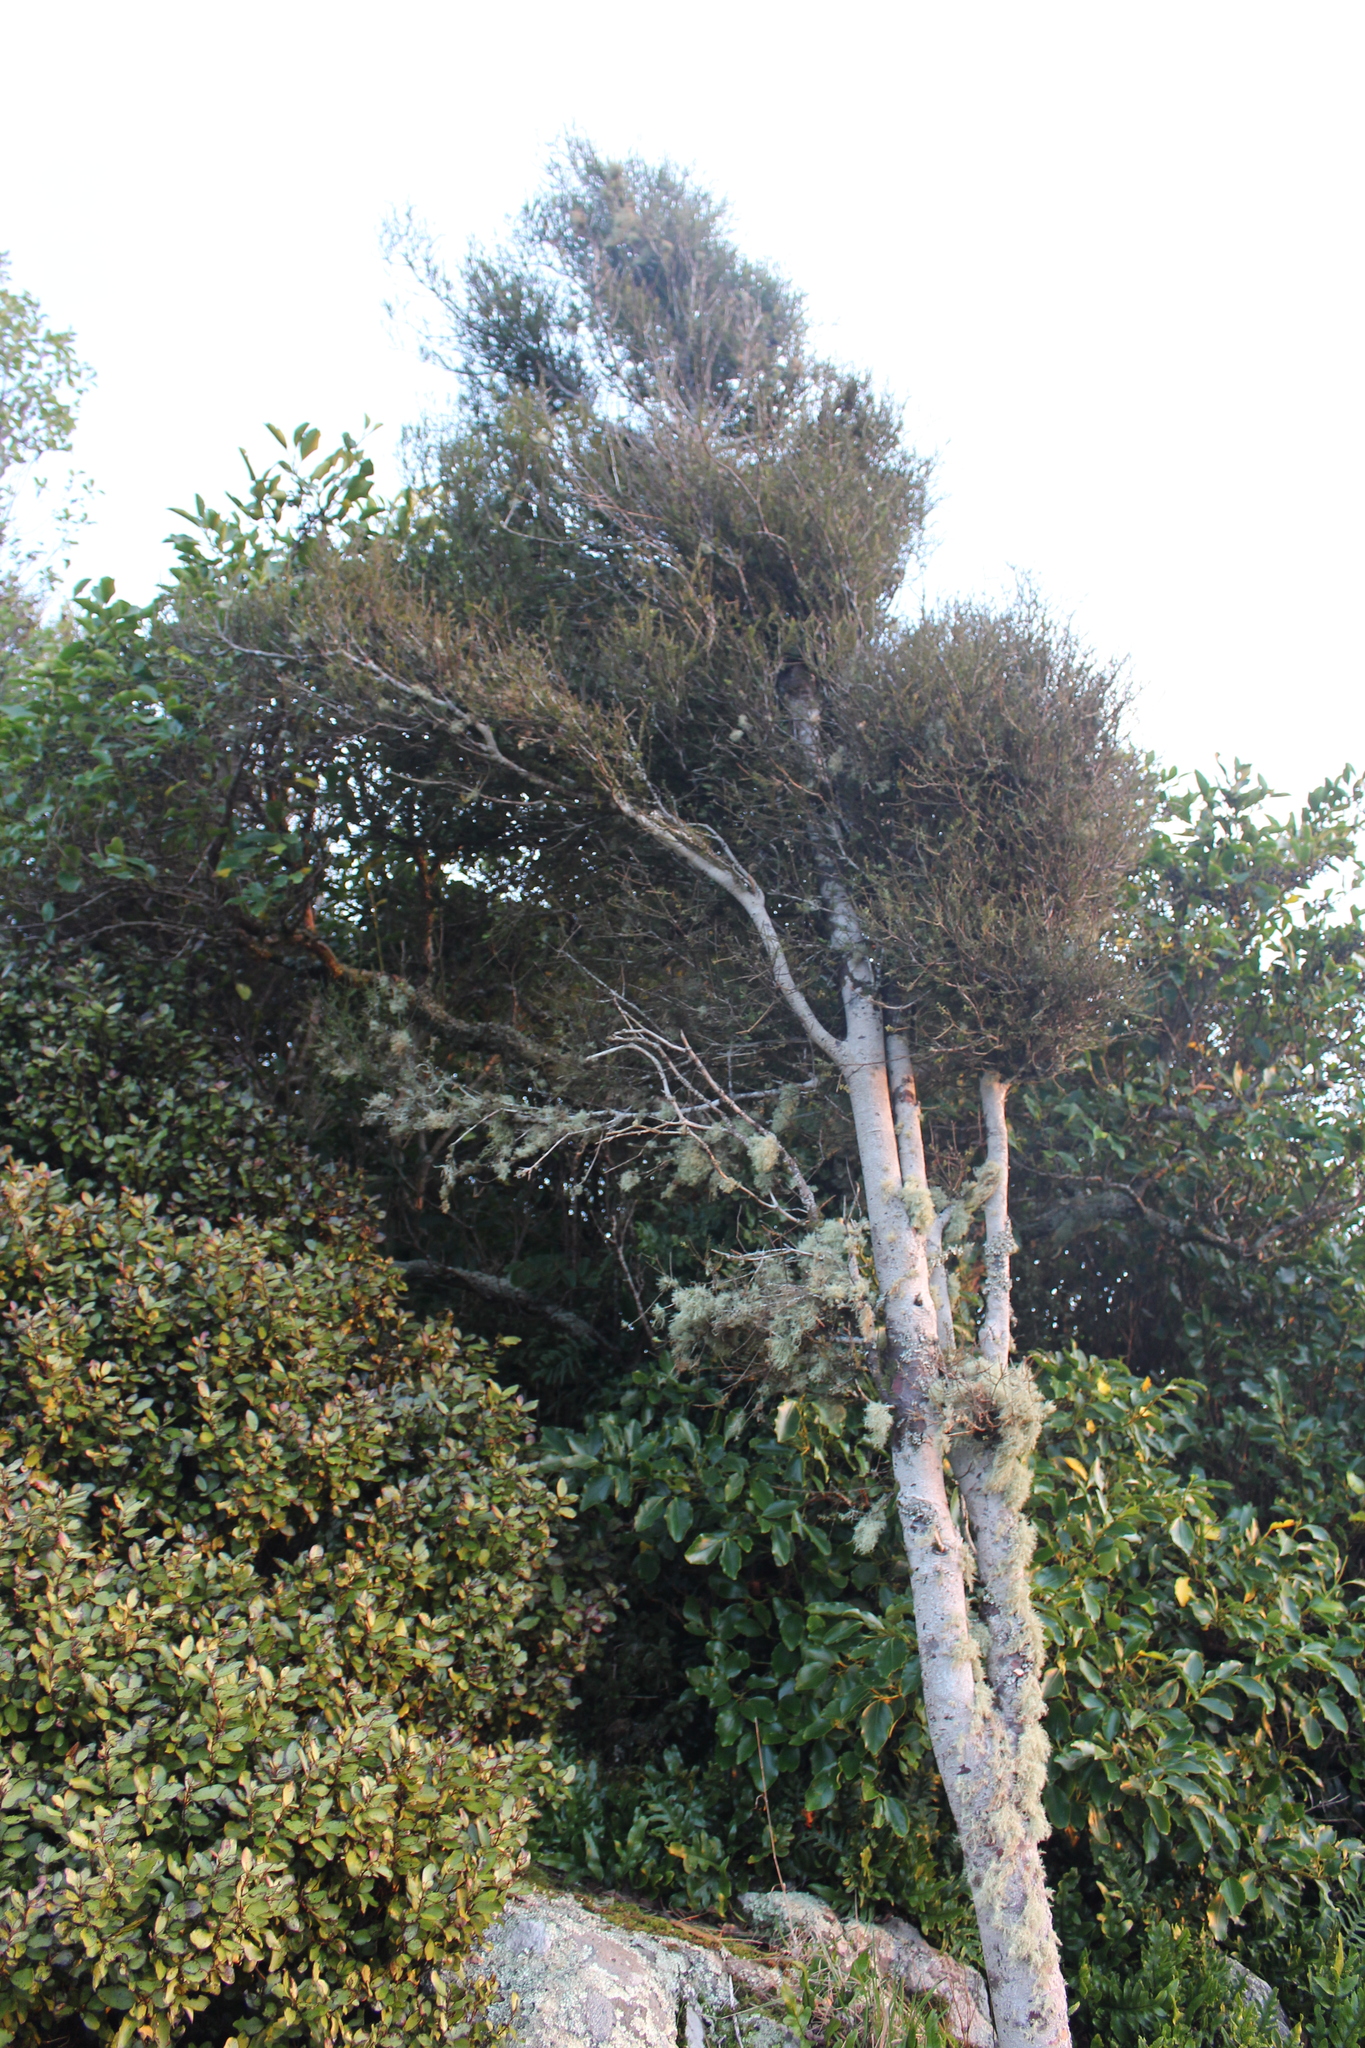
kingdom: Plantae
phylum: Tracheophyta
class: Pinopsida
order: Pinales
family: Podocarpaceae
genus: Prumnopitys
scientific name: Prumnopitys taxifolia
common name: Matai
